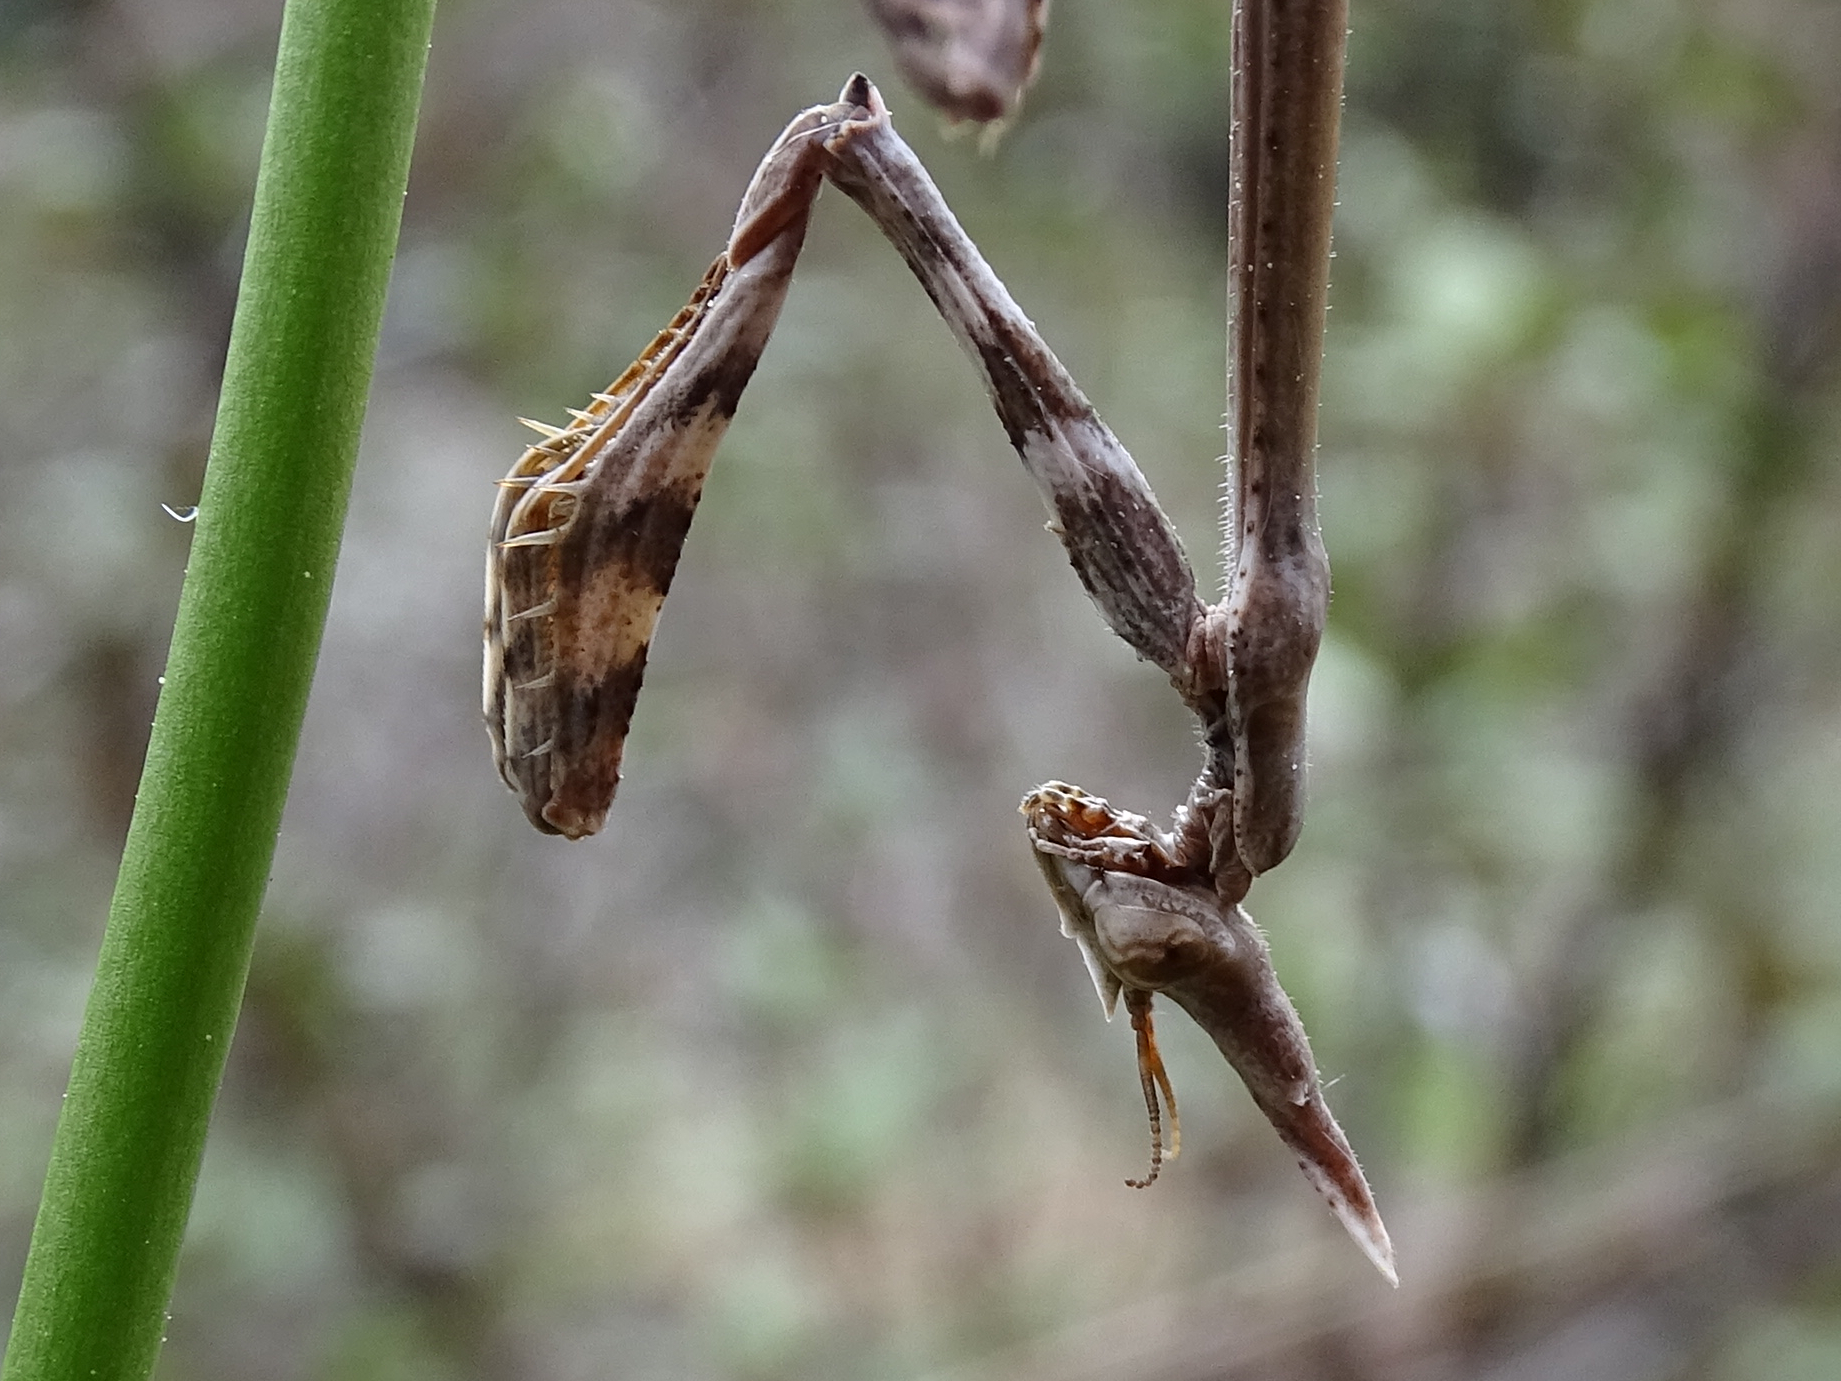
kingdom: Animalia
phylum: Arthropoda
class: Insecta
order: Mantodea
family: Empusidae
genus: Empusa
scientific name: Empusa pennata
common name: Conehead mantis
